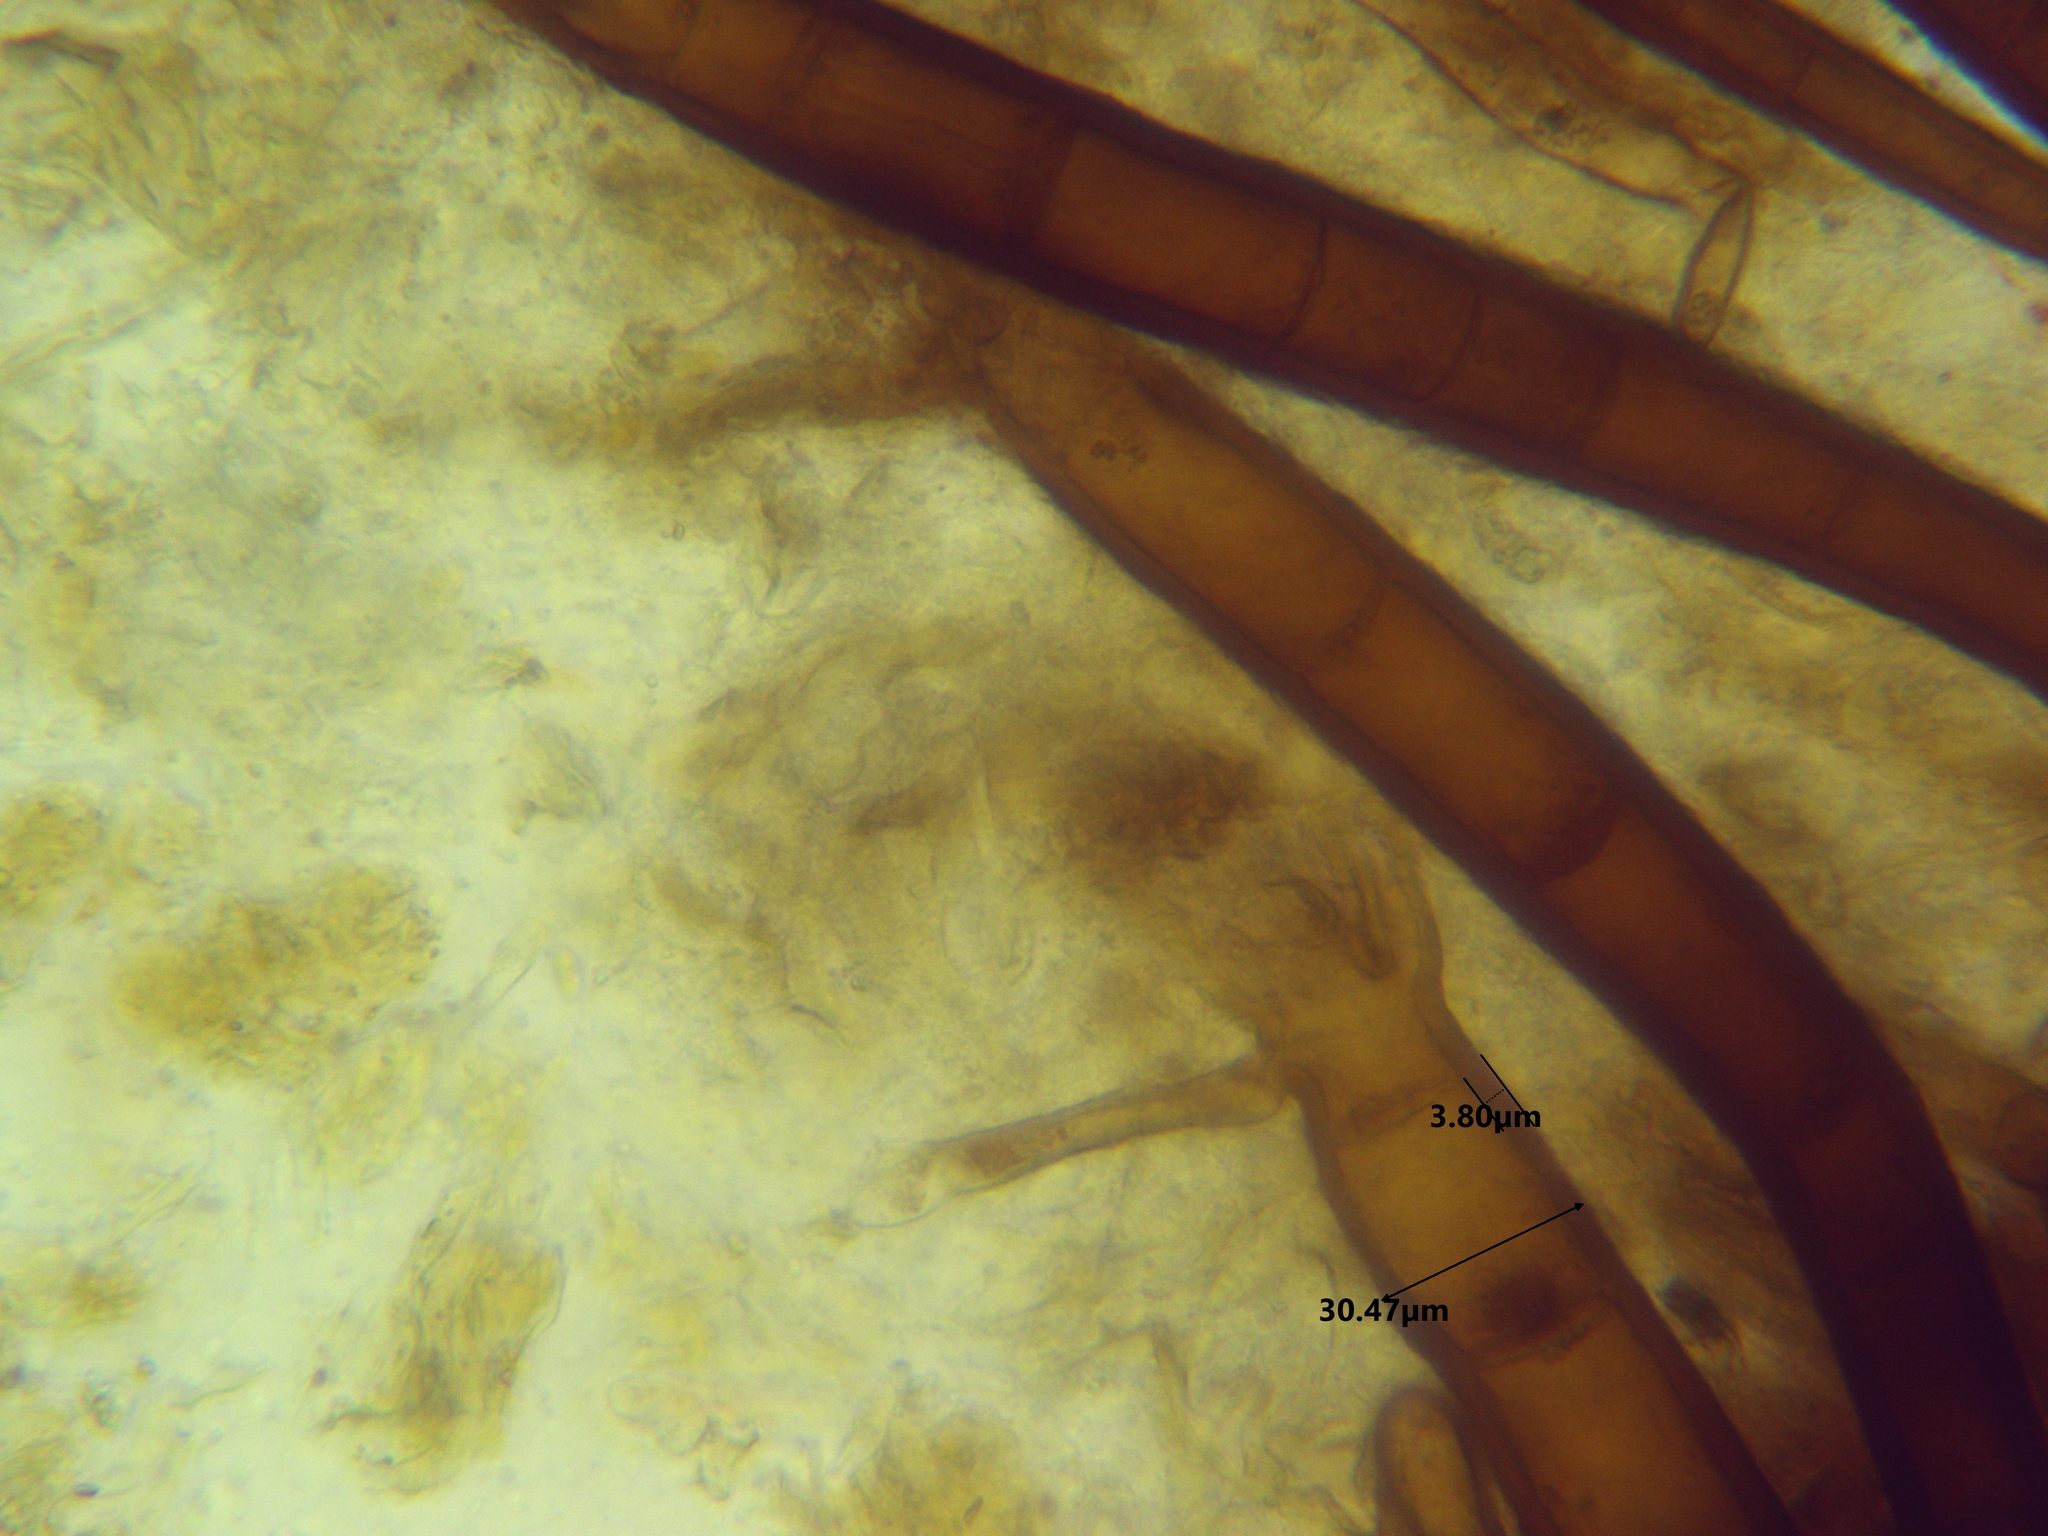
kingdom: Fungi
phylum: Ascomycota
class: Pezizomycetes
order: Pezizales
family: Pyronemataceae
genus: Scutellinia
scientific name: Scutellinia colensoi
